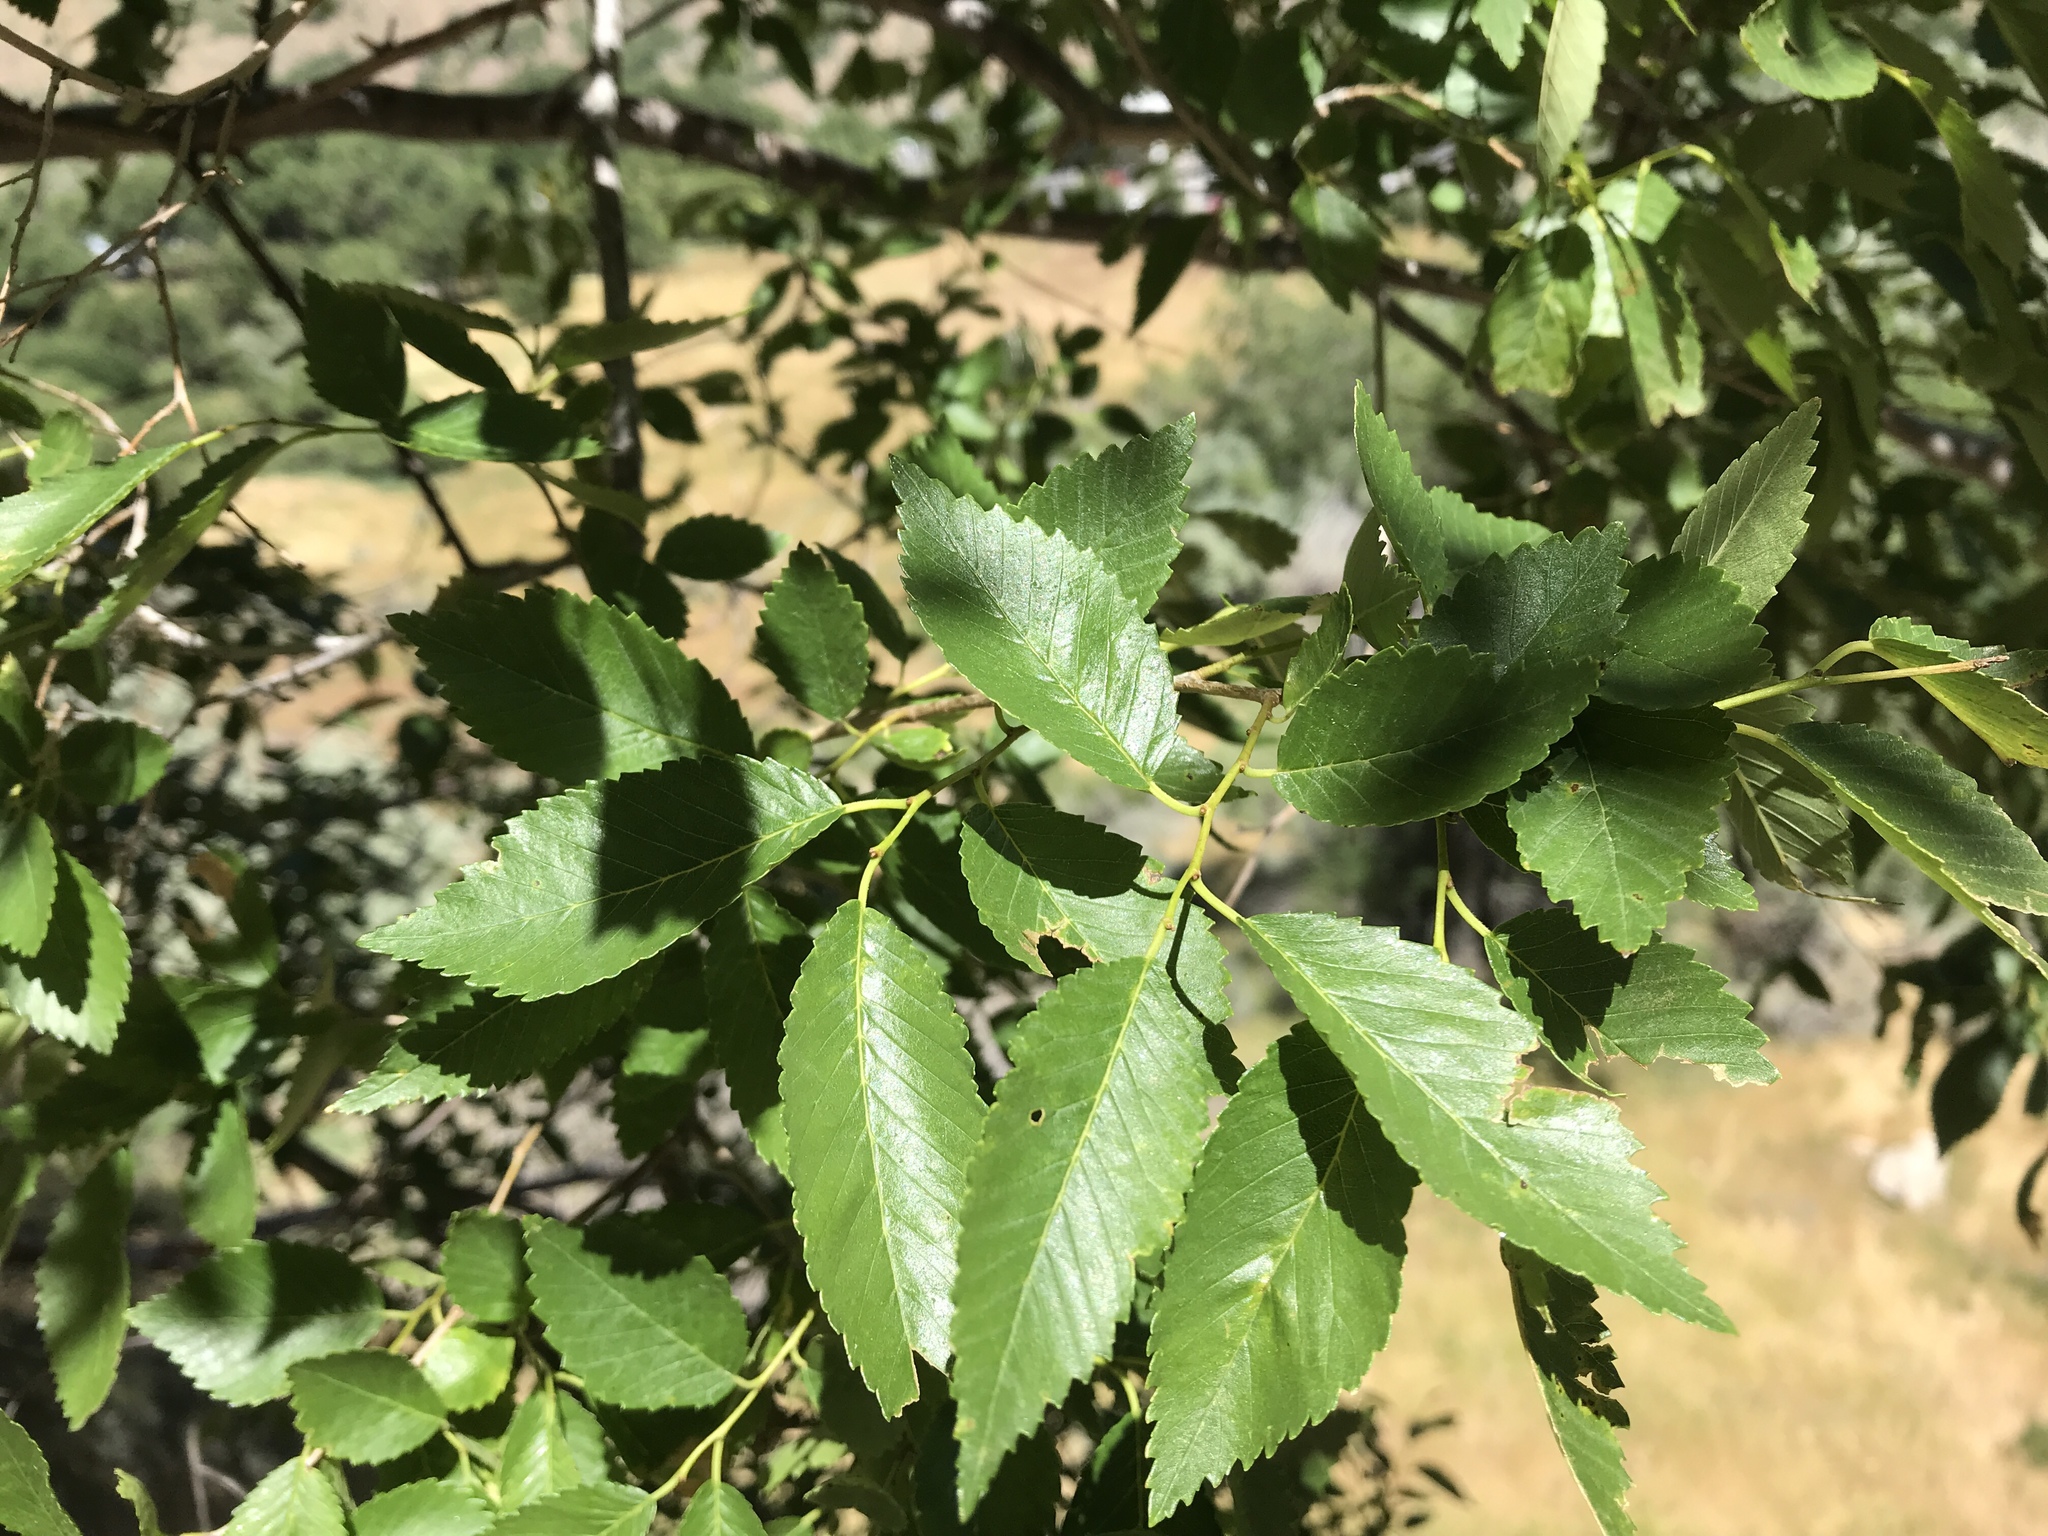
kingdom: Plantae
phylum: Tracheophyta
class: Magnoliopsida
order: Rosales
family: Ulmaceae
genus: Ulmus
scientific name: Ulmus pumila
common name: Siberian elm
